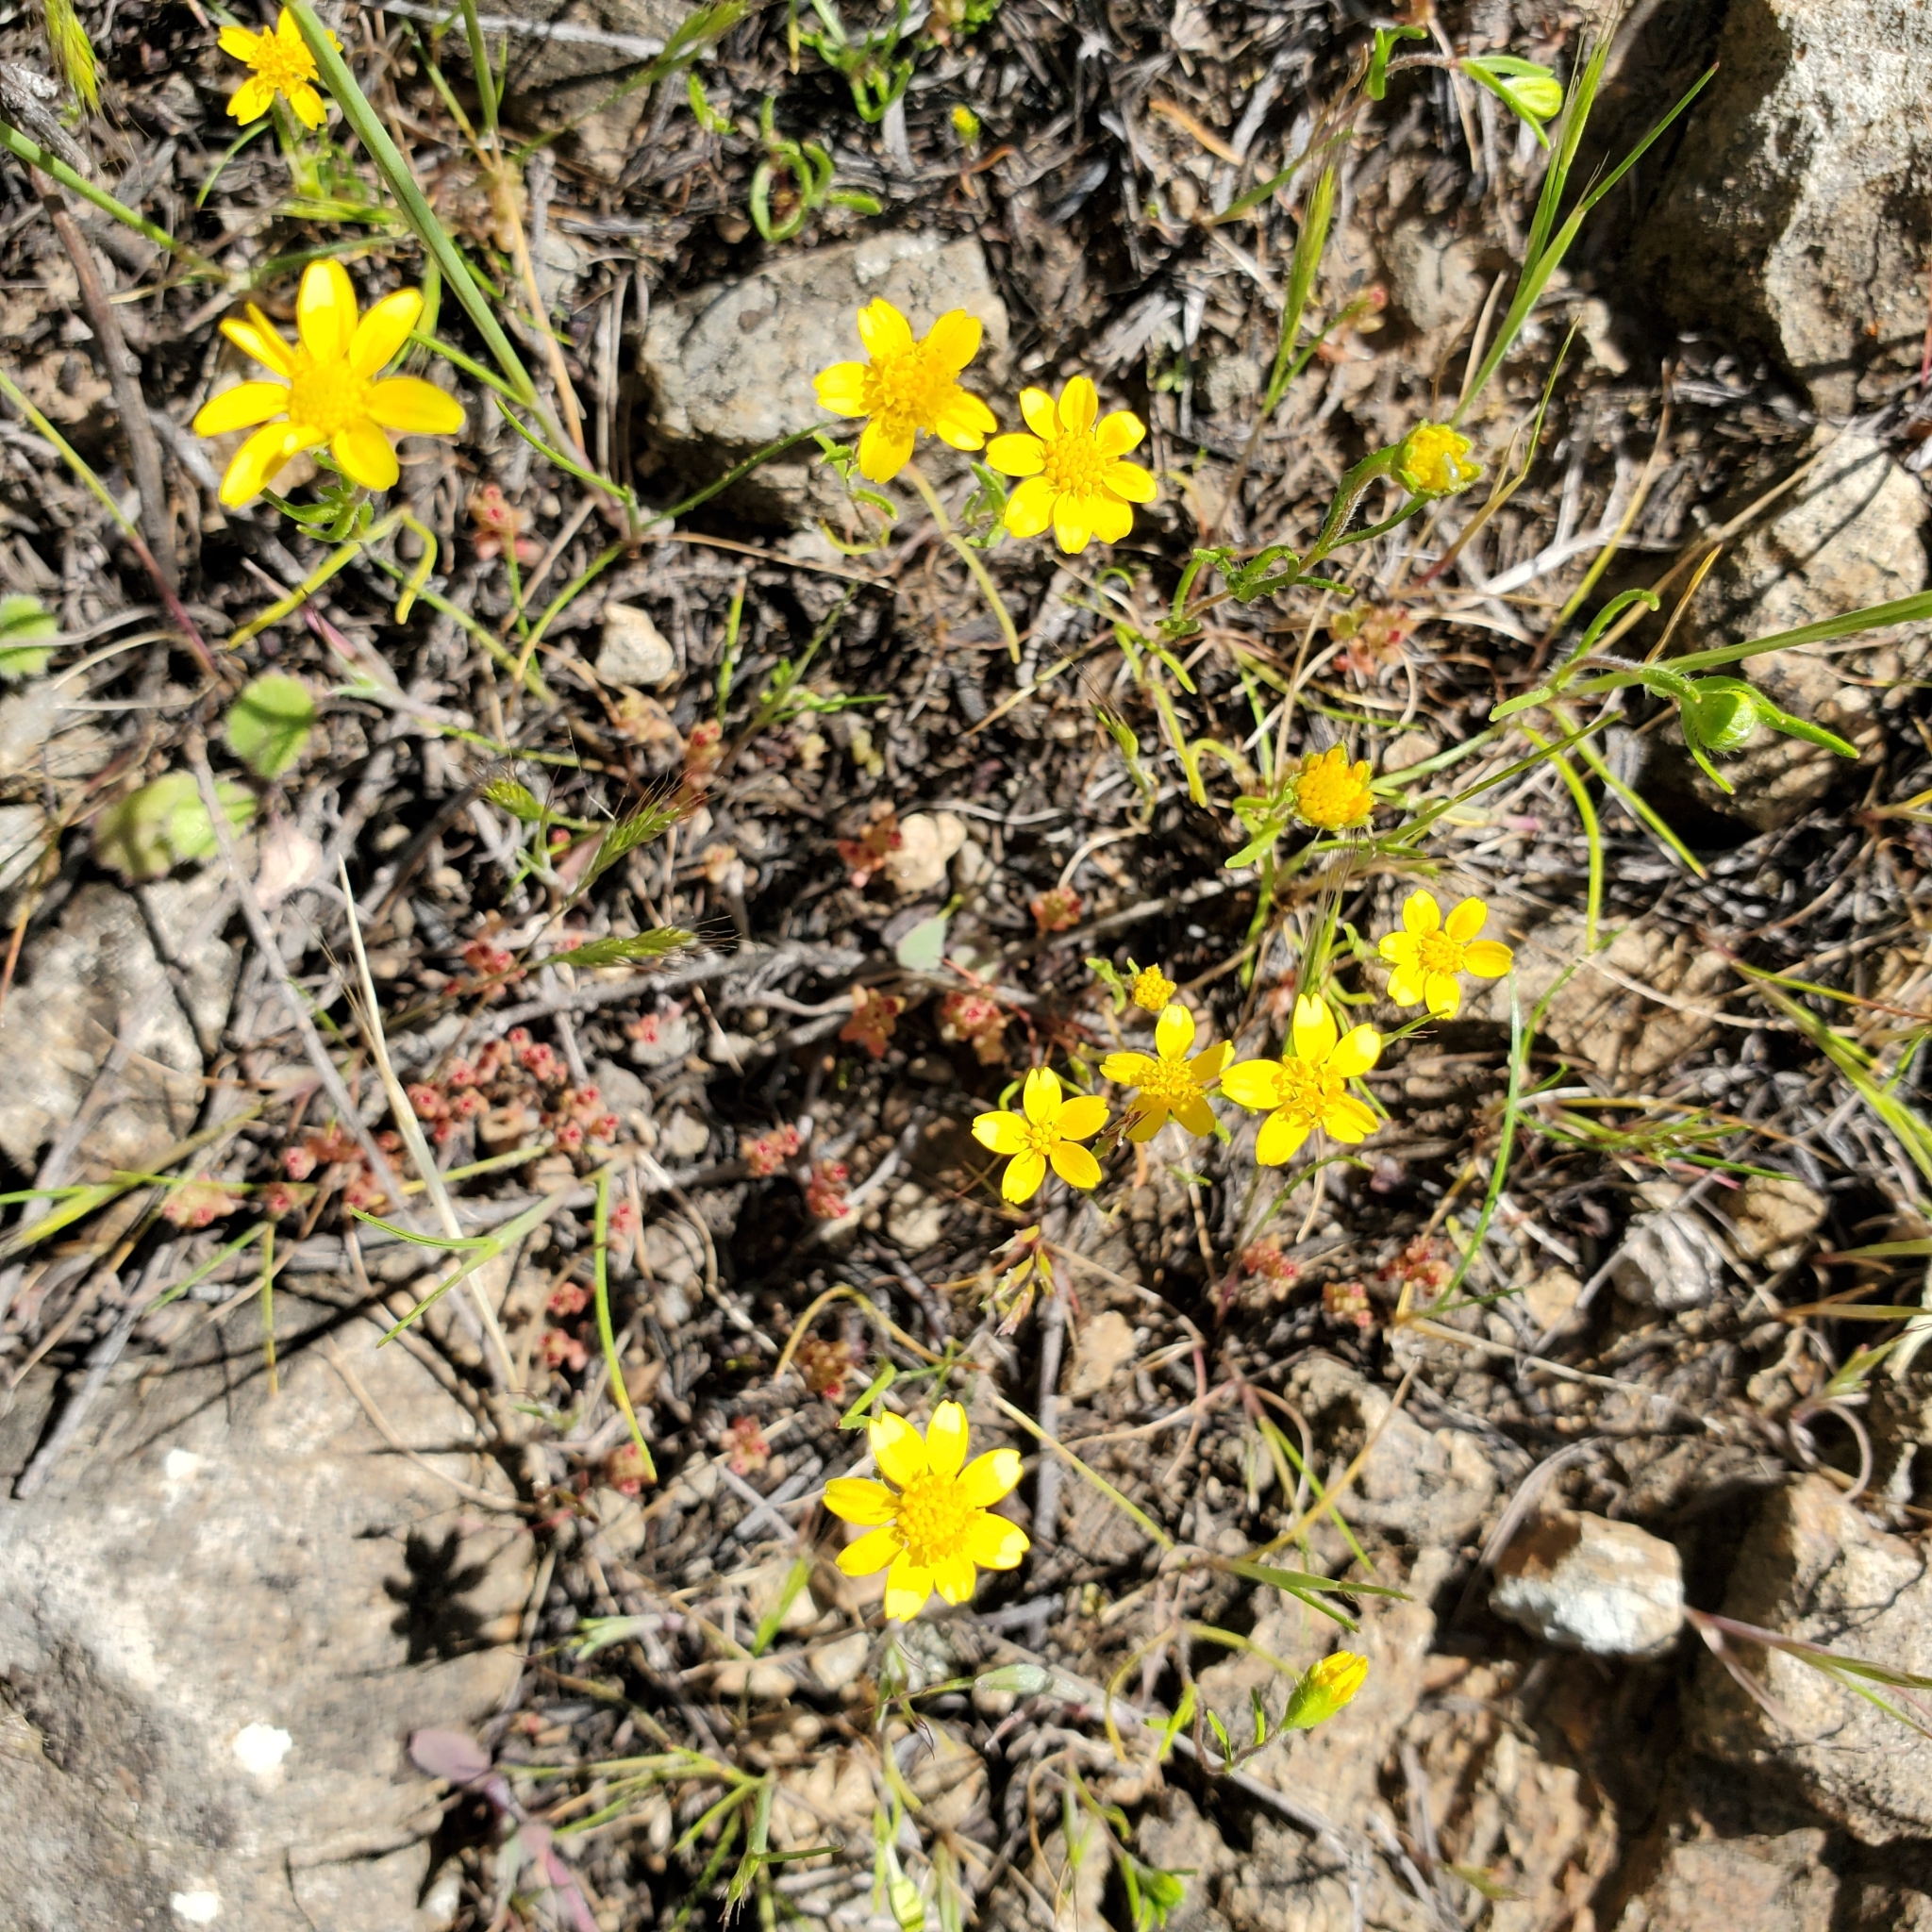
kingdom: Plantae
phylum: Tracheophyta
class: Magnoliopsida
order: Asterales
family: Asteraceae
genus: Lasthenia
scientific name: Lasthenia gracilis
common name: Common goldfields
